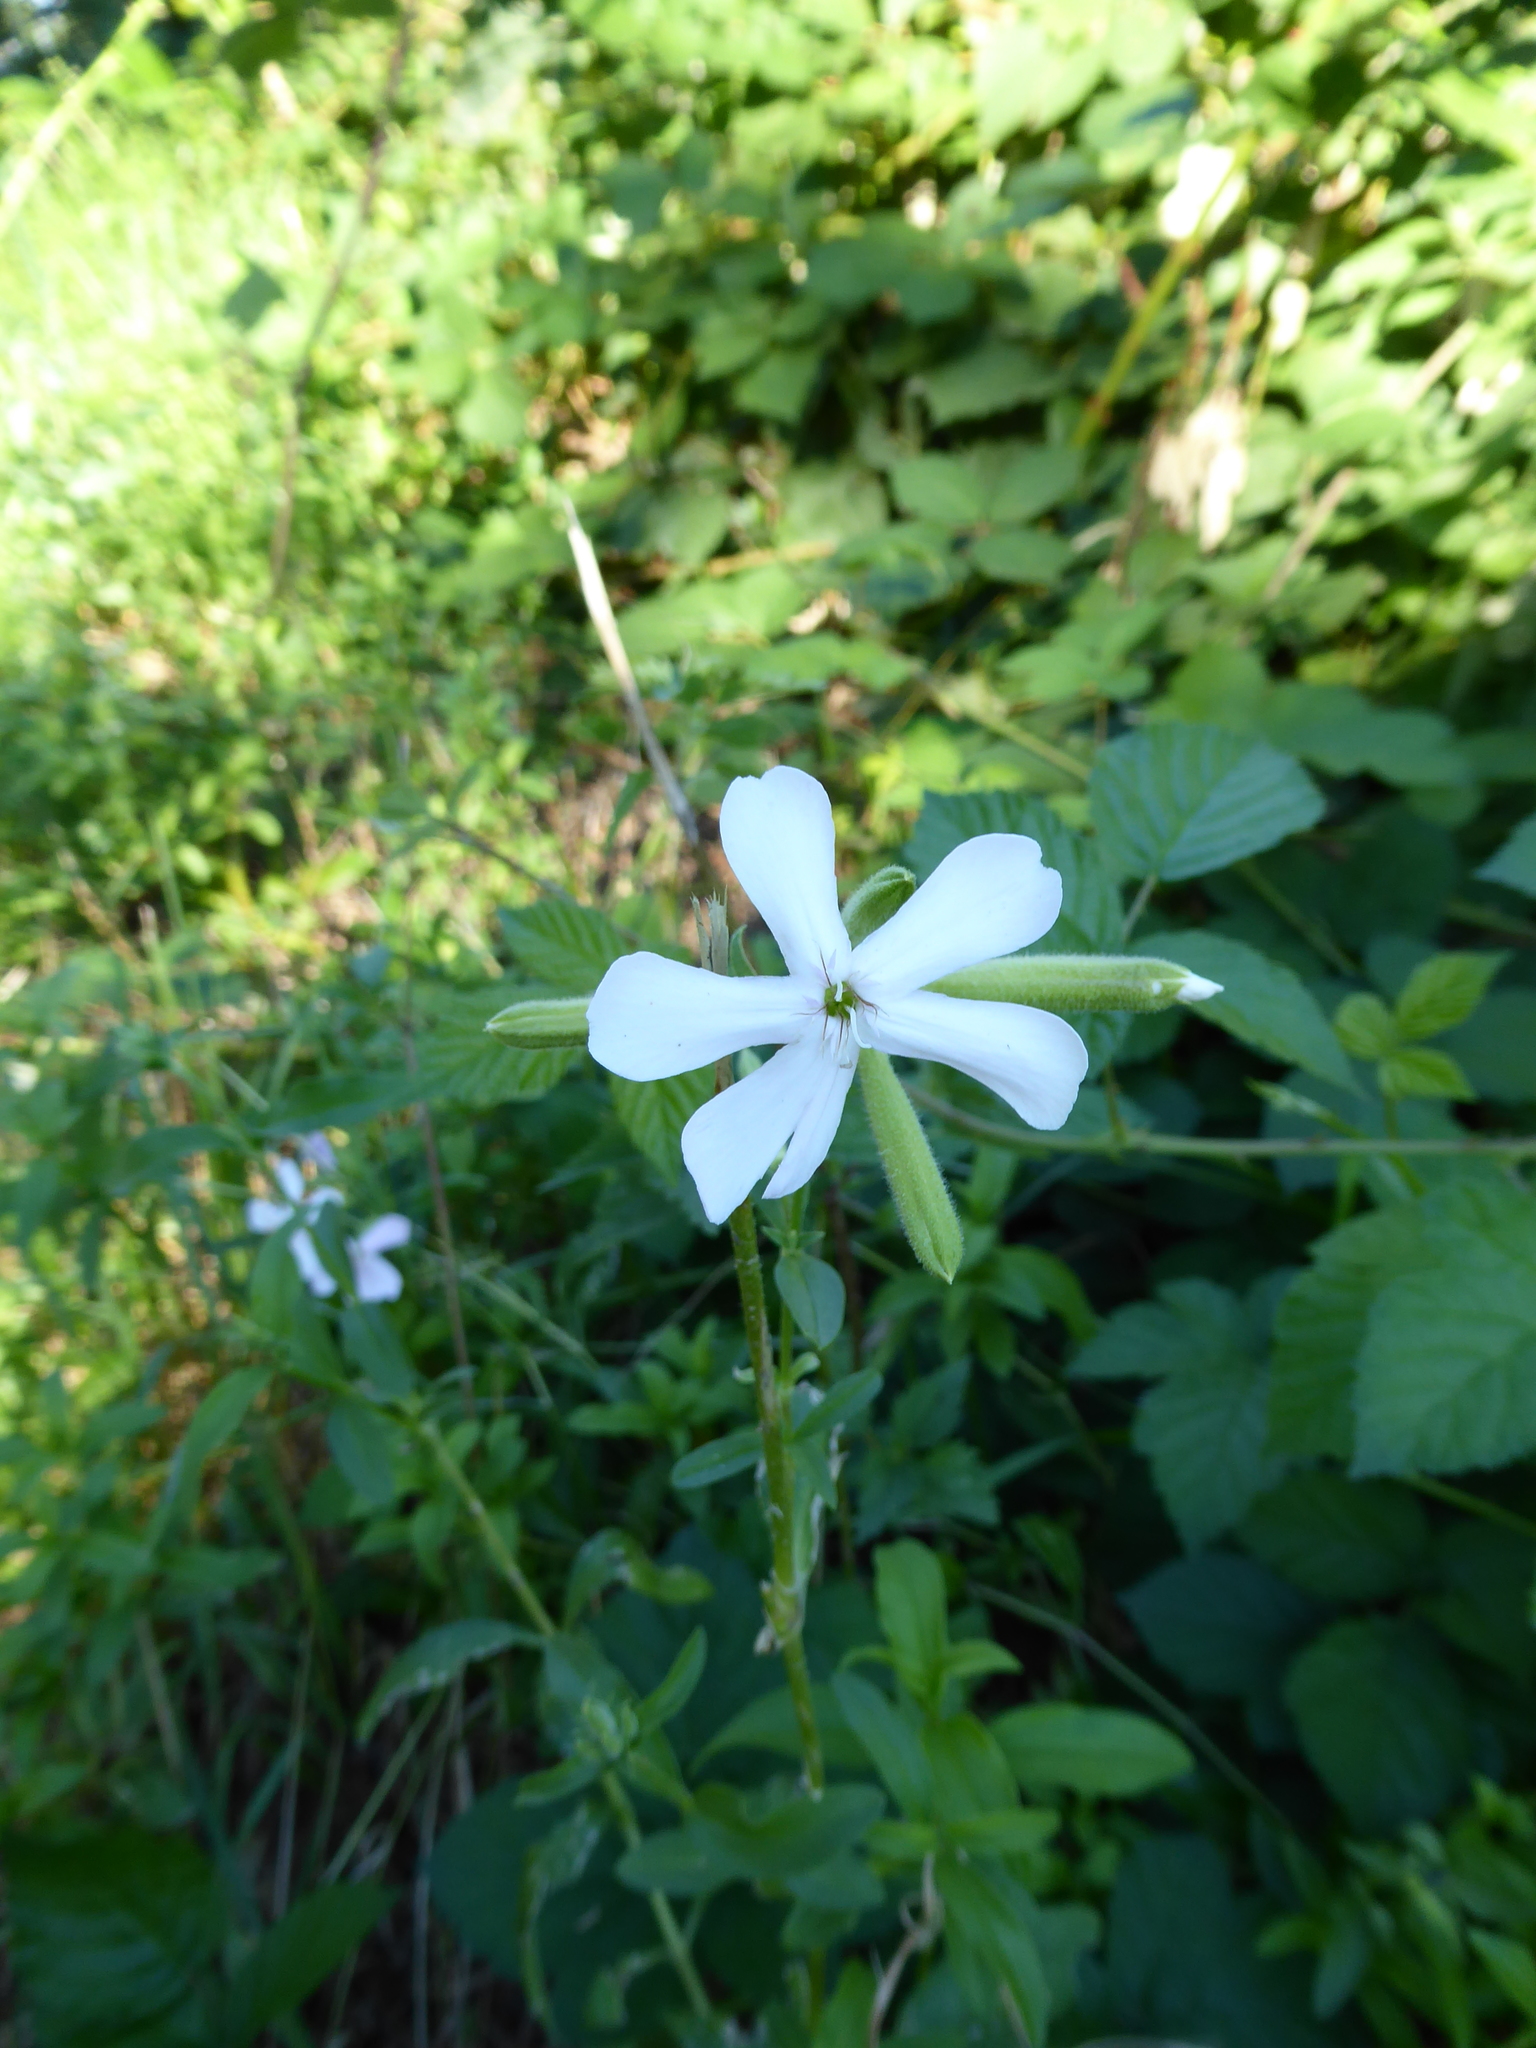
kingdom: Plantae
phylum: Tracheophyta
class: Magnoliopsida
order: Caryophyllales
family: Caryophyllaceae
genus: Saponaria
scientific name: Saponaria officinalis
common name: Soapwort
